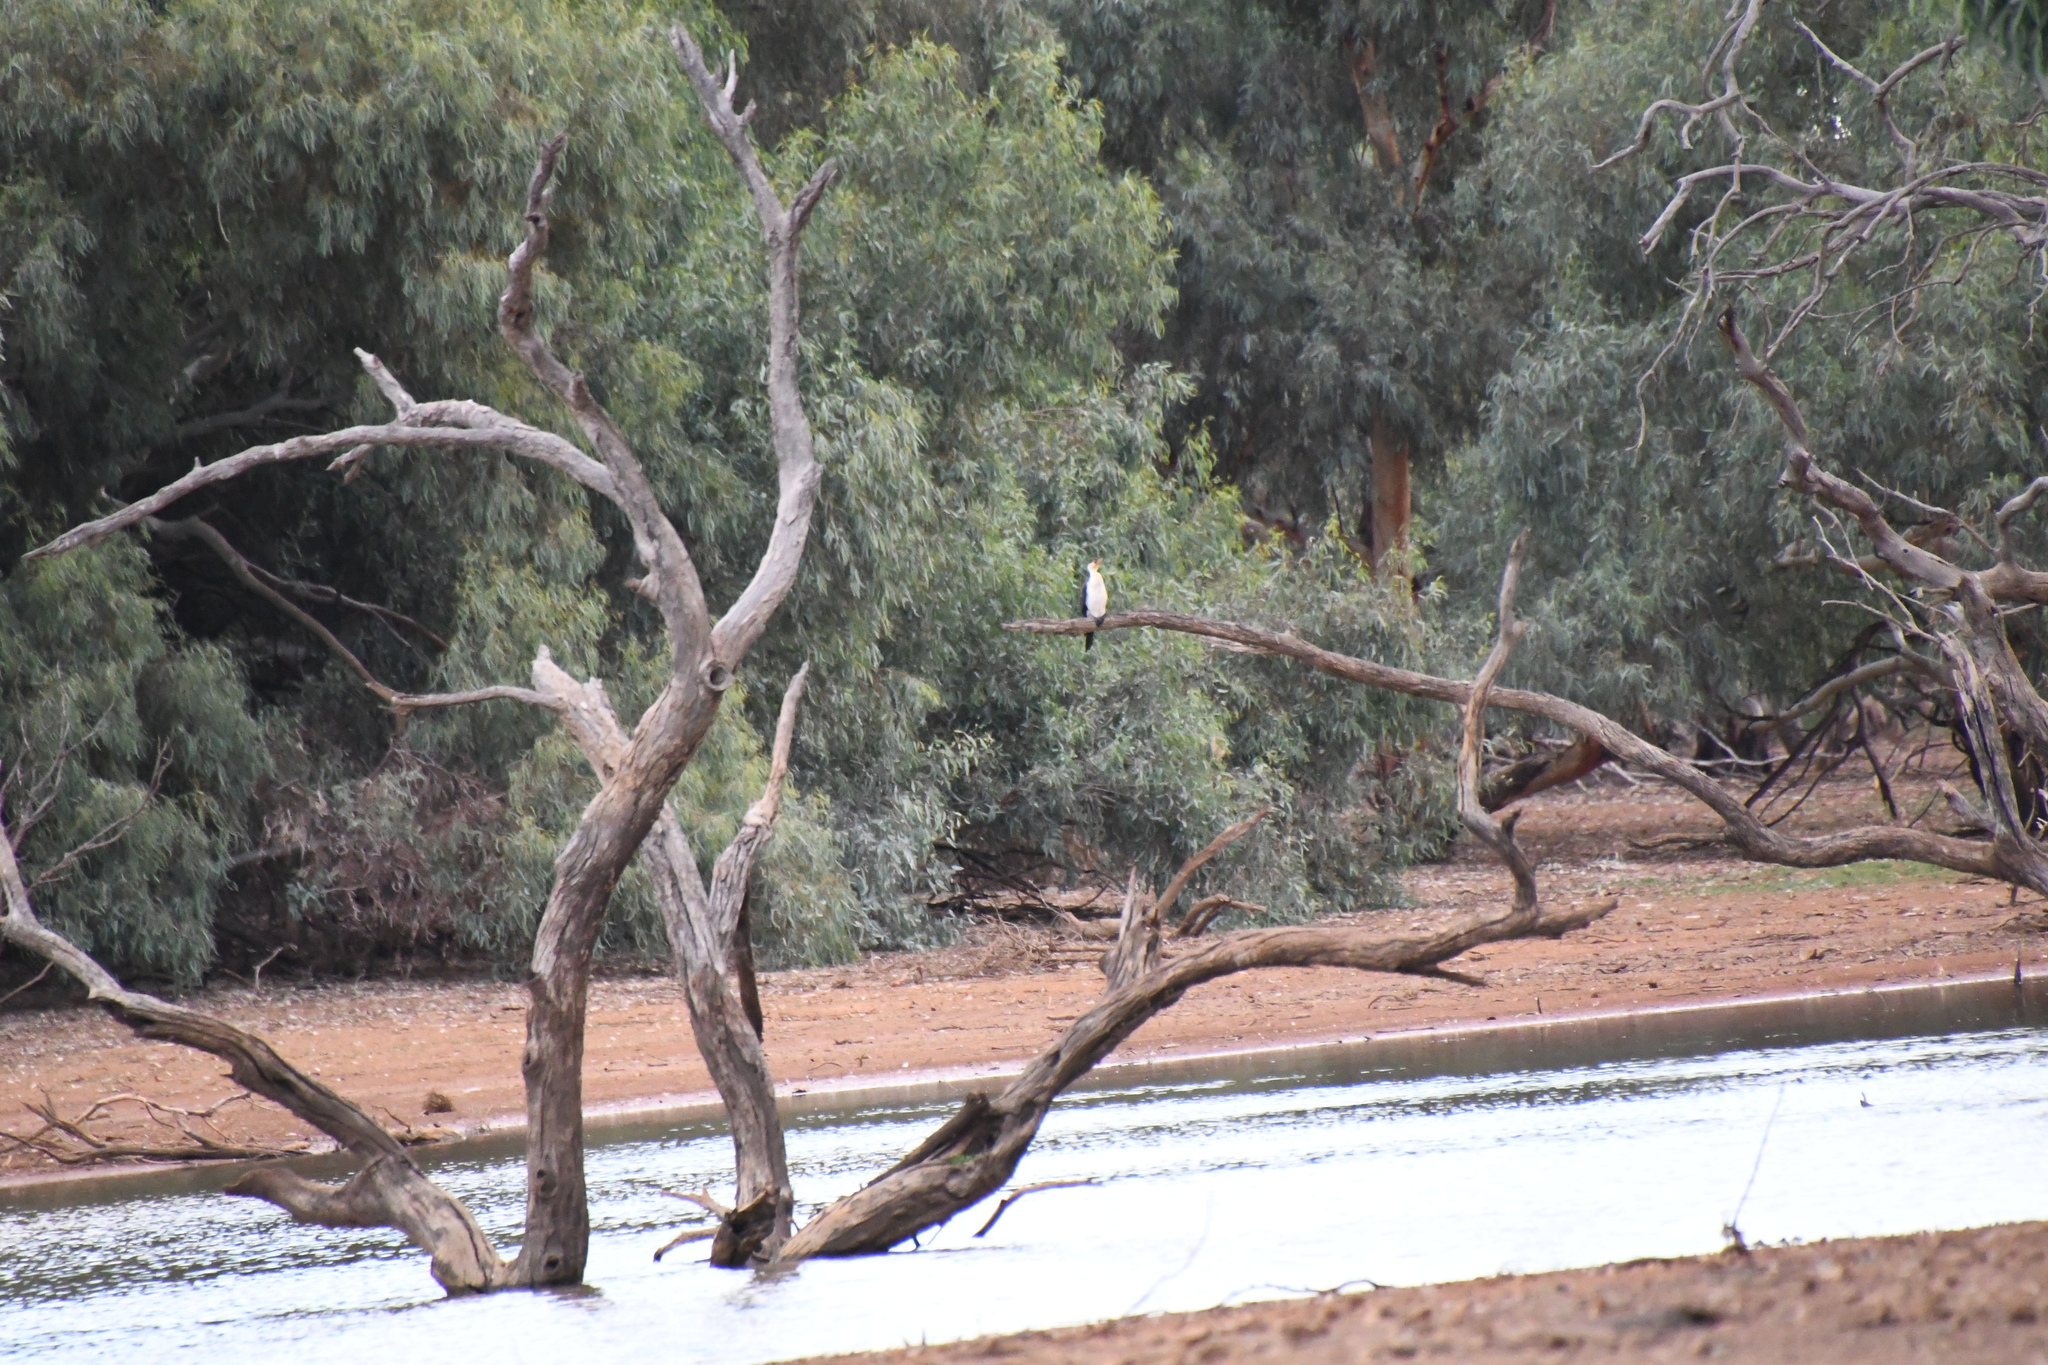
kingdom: Animalia
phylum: Chordata
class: Aves
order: Suliformes
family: Phalacrocoracidae
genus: Microcarbo
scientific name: Microcarbo melanoleucos
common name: Little pied cormorant
